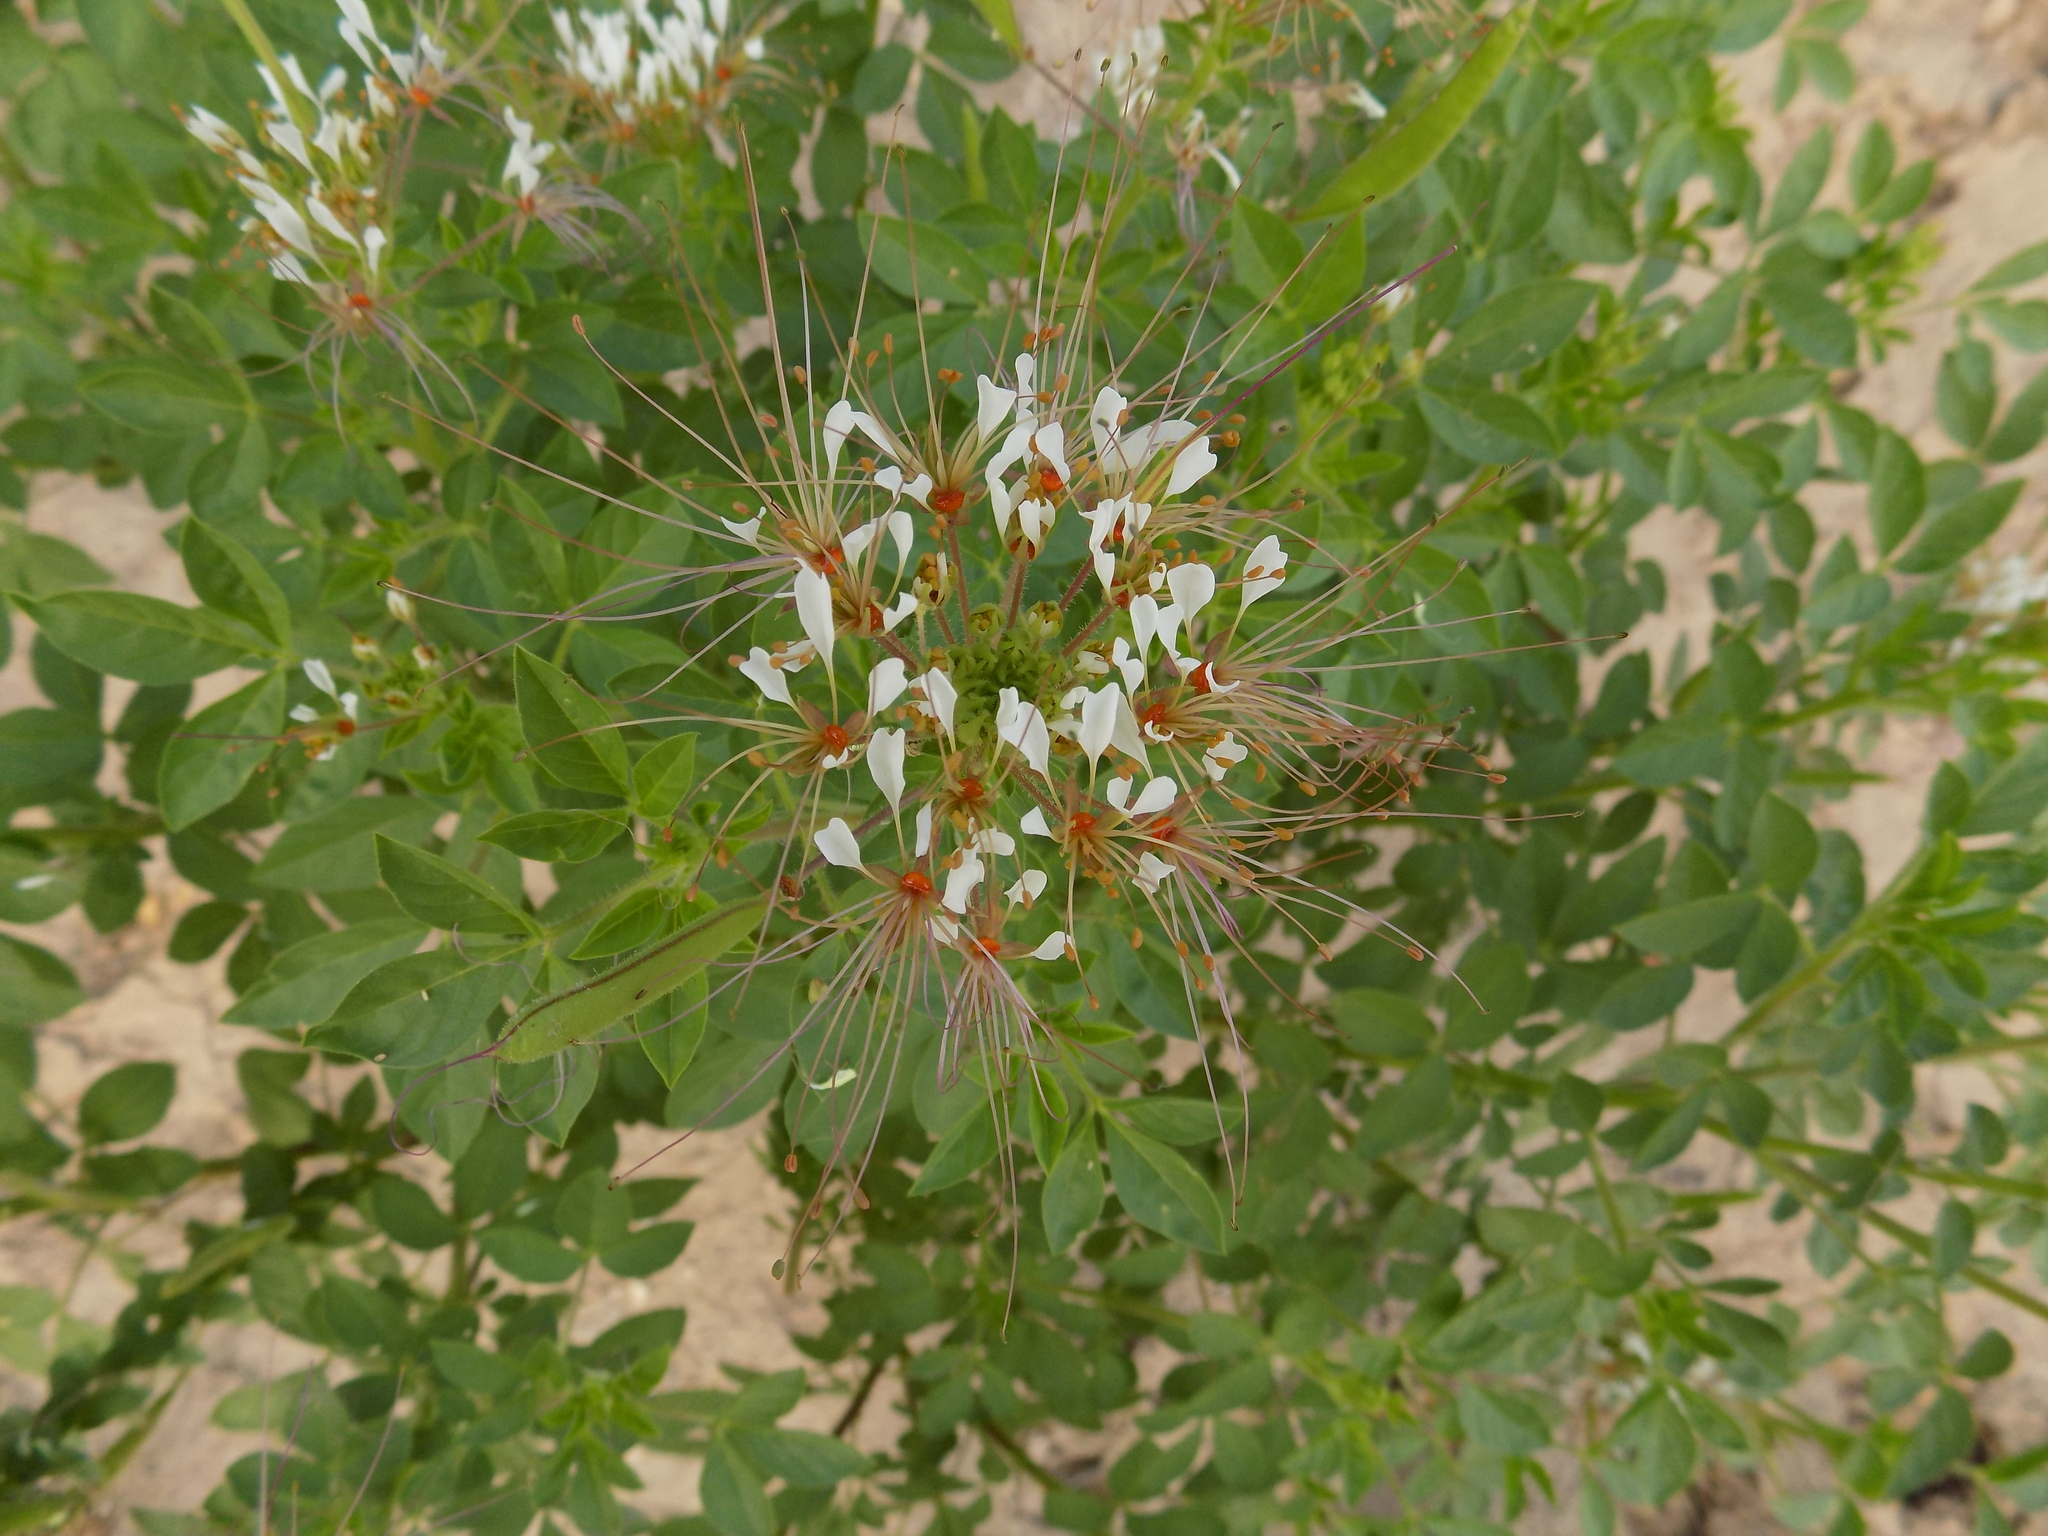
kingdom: Plantae
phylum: Tracheophyta
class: Magnoliopsida
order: Brassicales
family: Cleomaceae
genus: Polanisia
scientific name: Polanisia dodecandra
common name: Clammyweed
